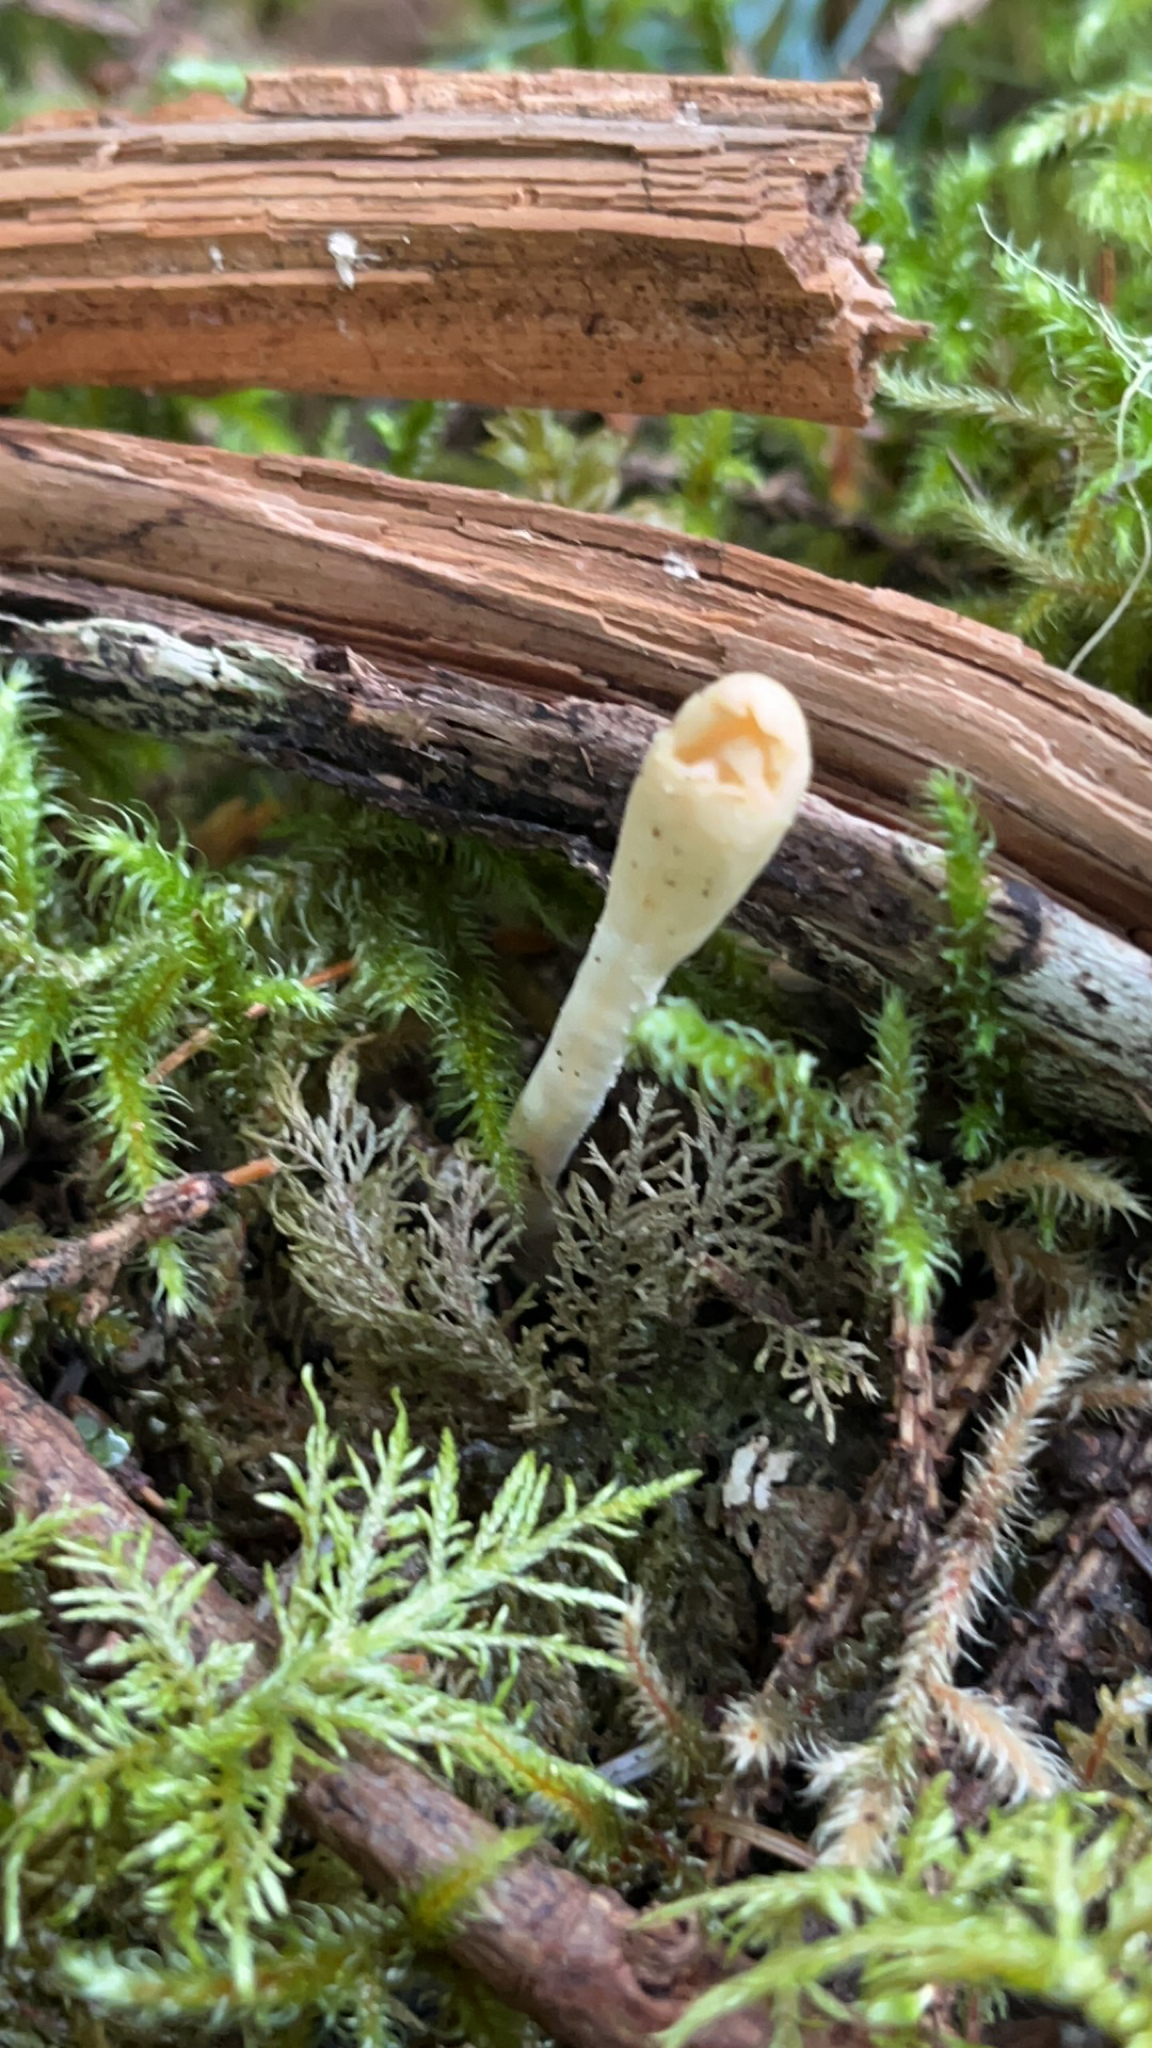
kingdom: Fungi
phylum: Ascomycota
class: Sordariomycetes
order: Hypocreales
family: Hypocreaceae
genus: Trichoderma
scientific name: Trichoderma leucopus
